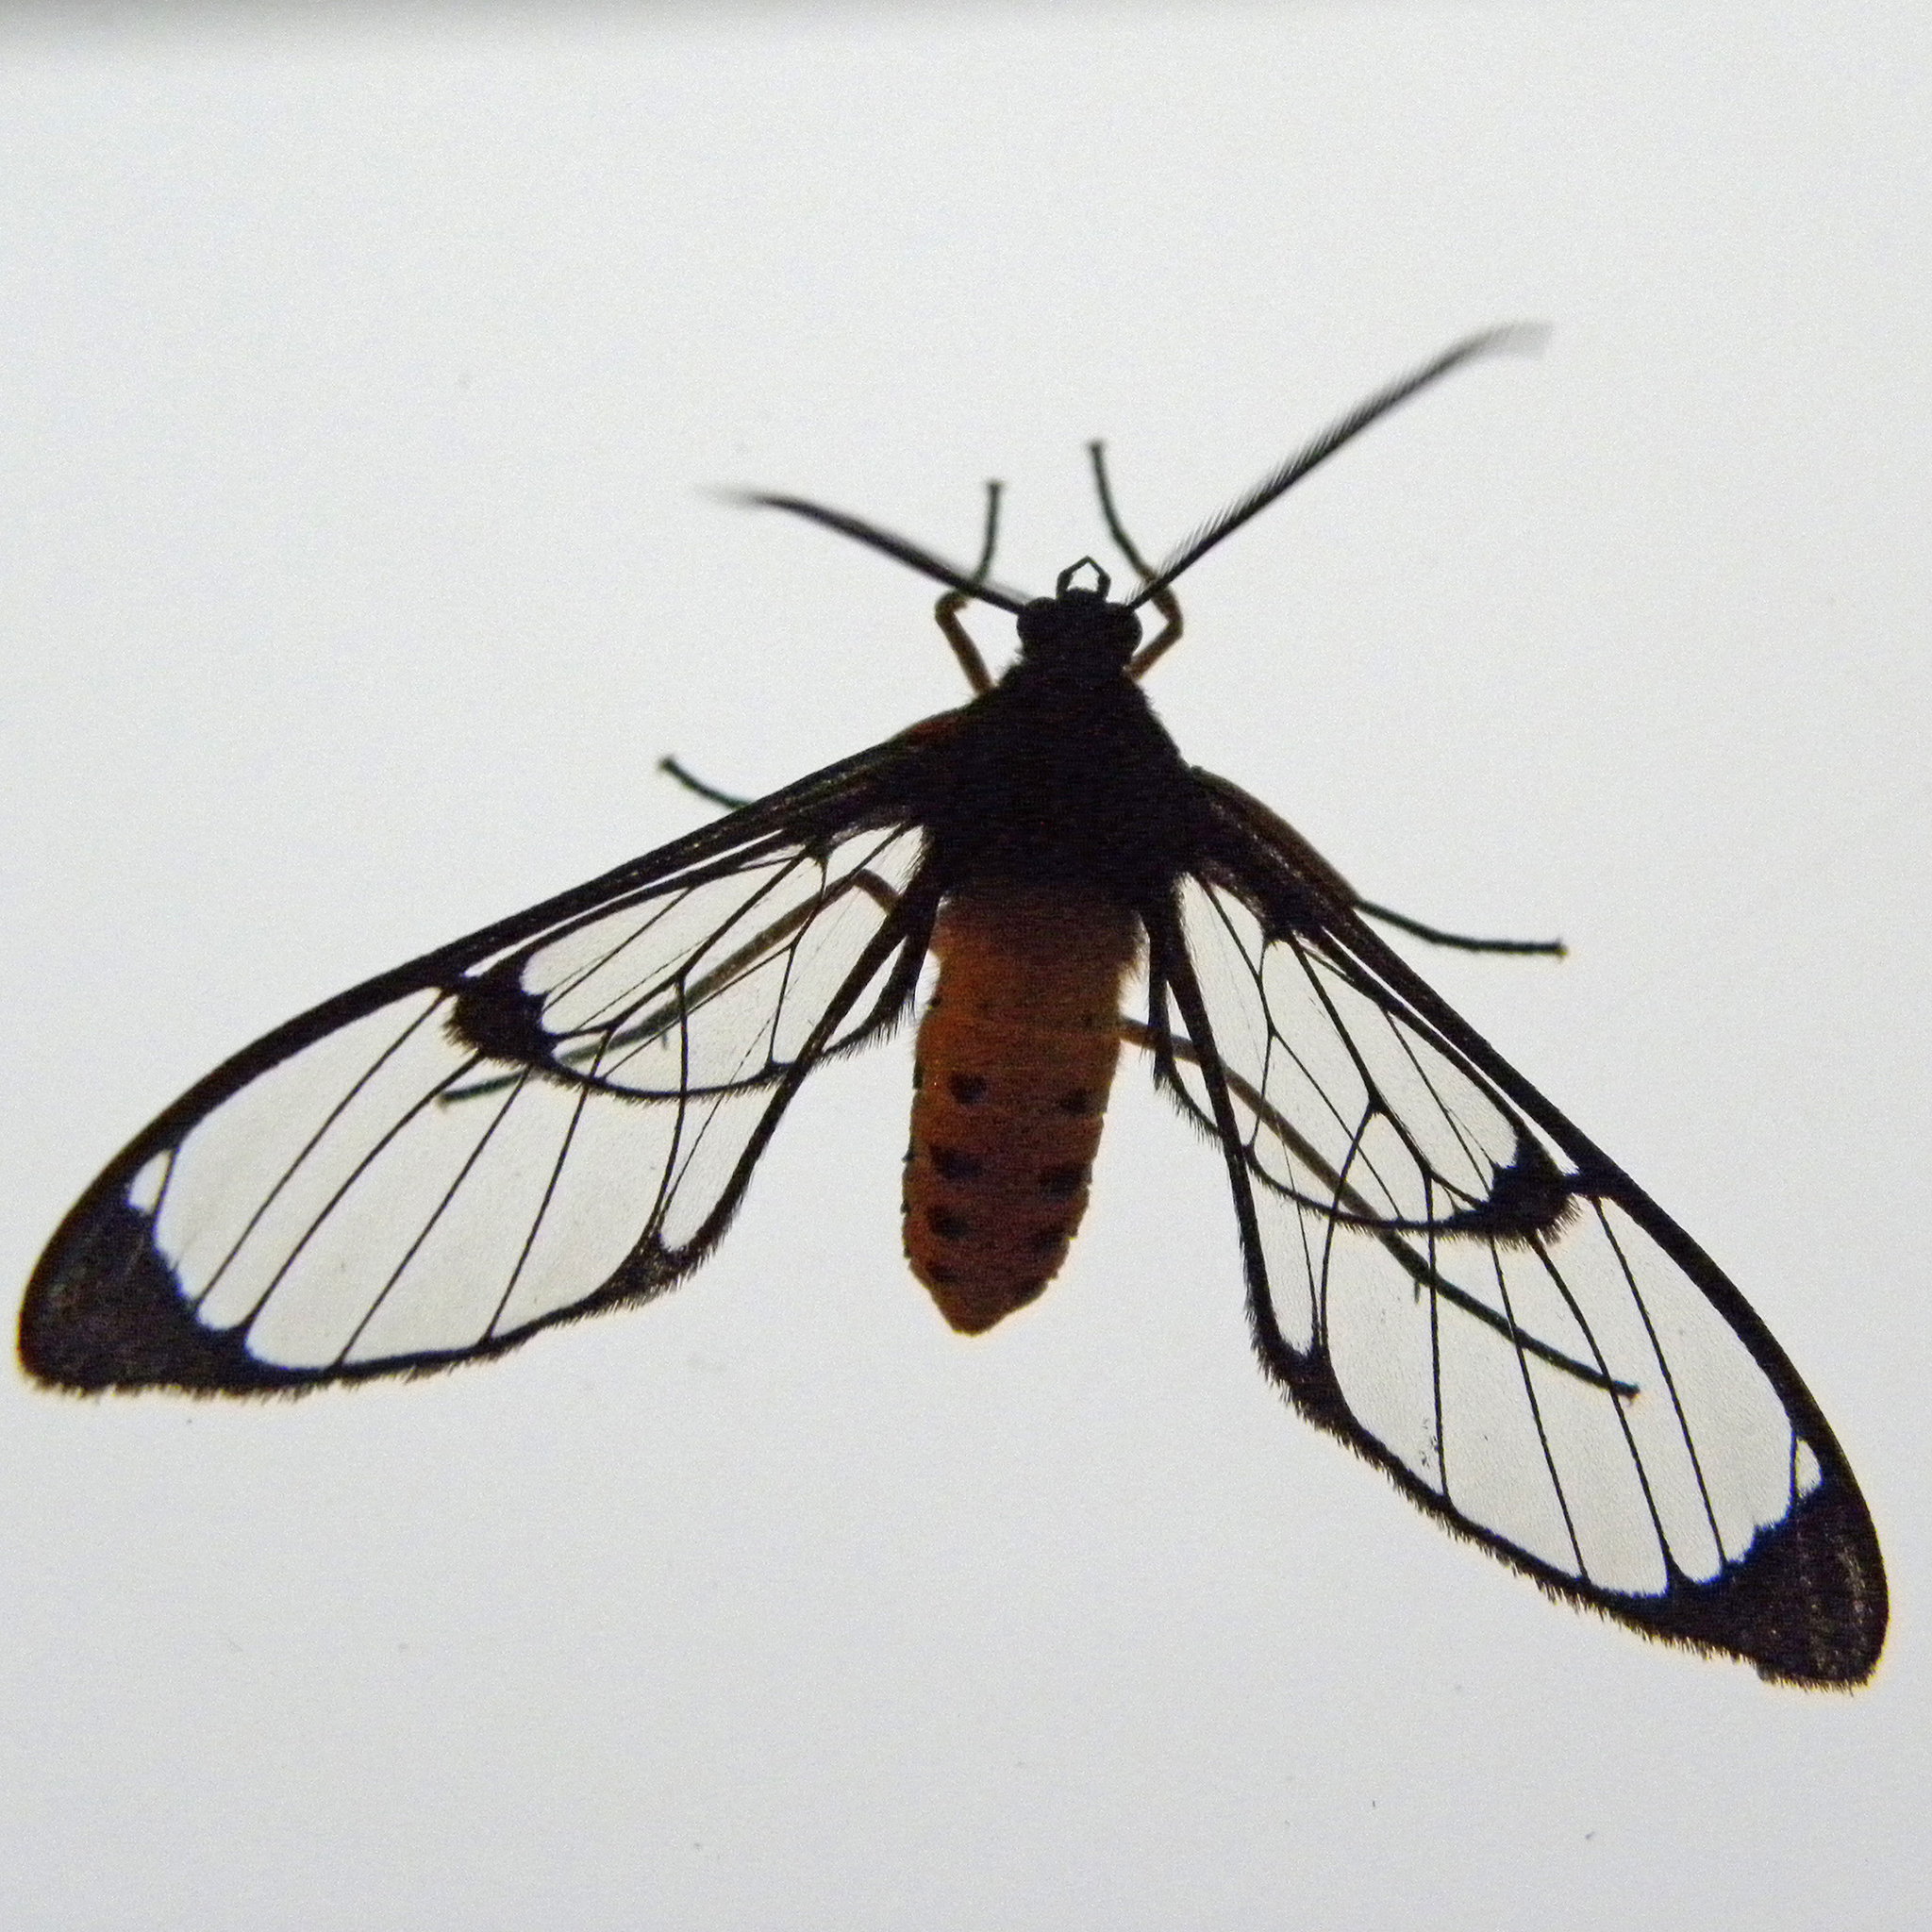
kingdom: Animalia
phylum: Arthropoda
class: Insecta
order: Lepidoptera
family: Erebidae
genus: Mesothen
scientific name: Mesothen montana
